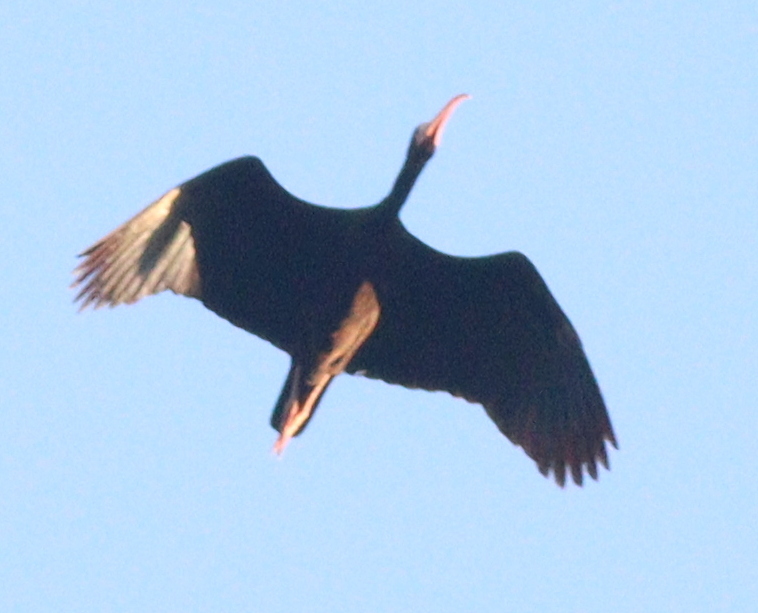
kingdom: Animalia
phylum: Chordata
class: Aves
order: Pelecaniformes
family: Threskiornithidae
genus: Phimosus
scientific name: Phimosus infuscatus
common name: Bare-faced ibis
